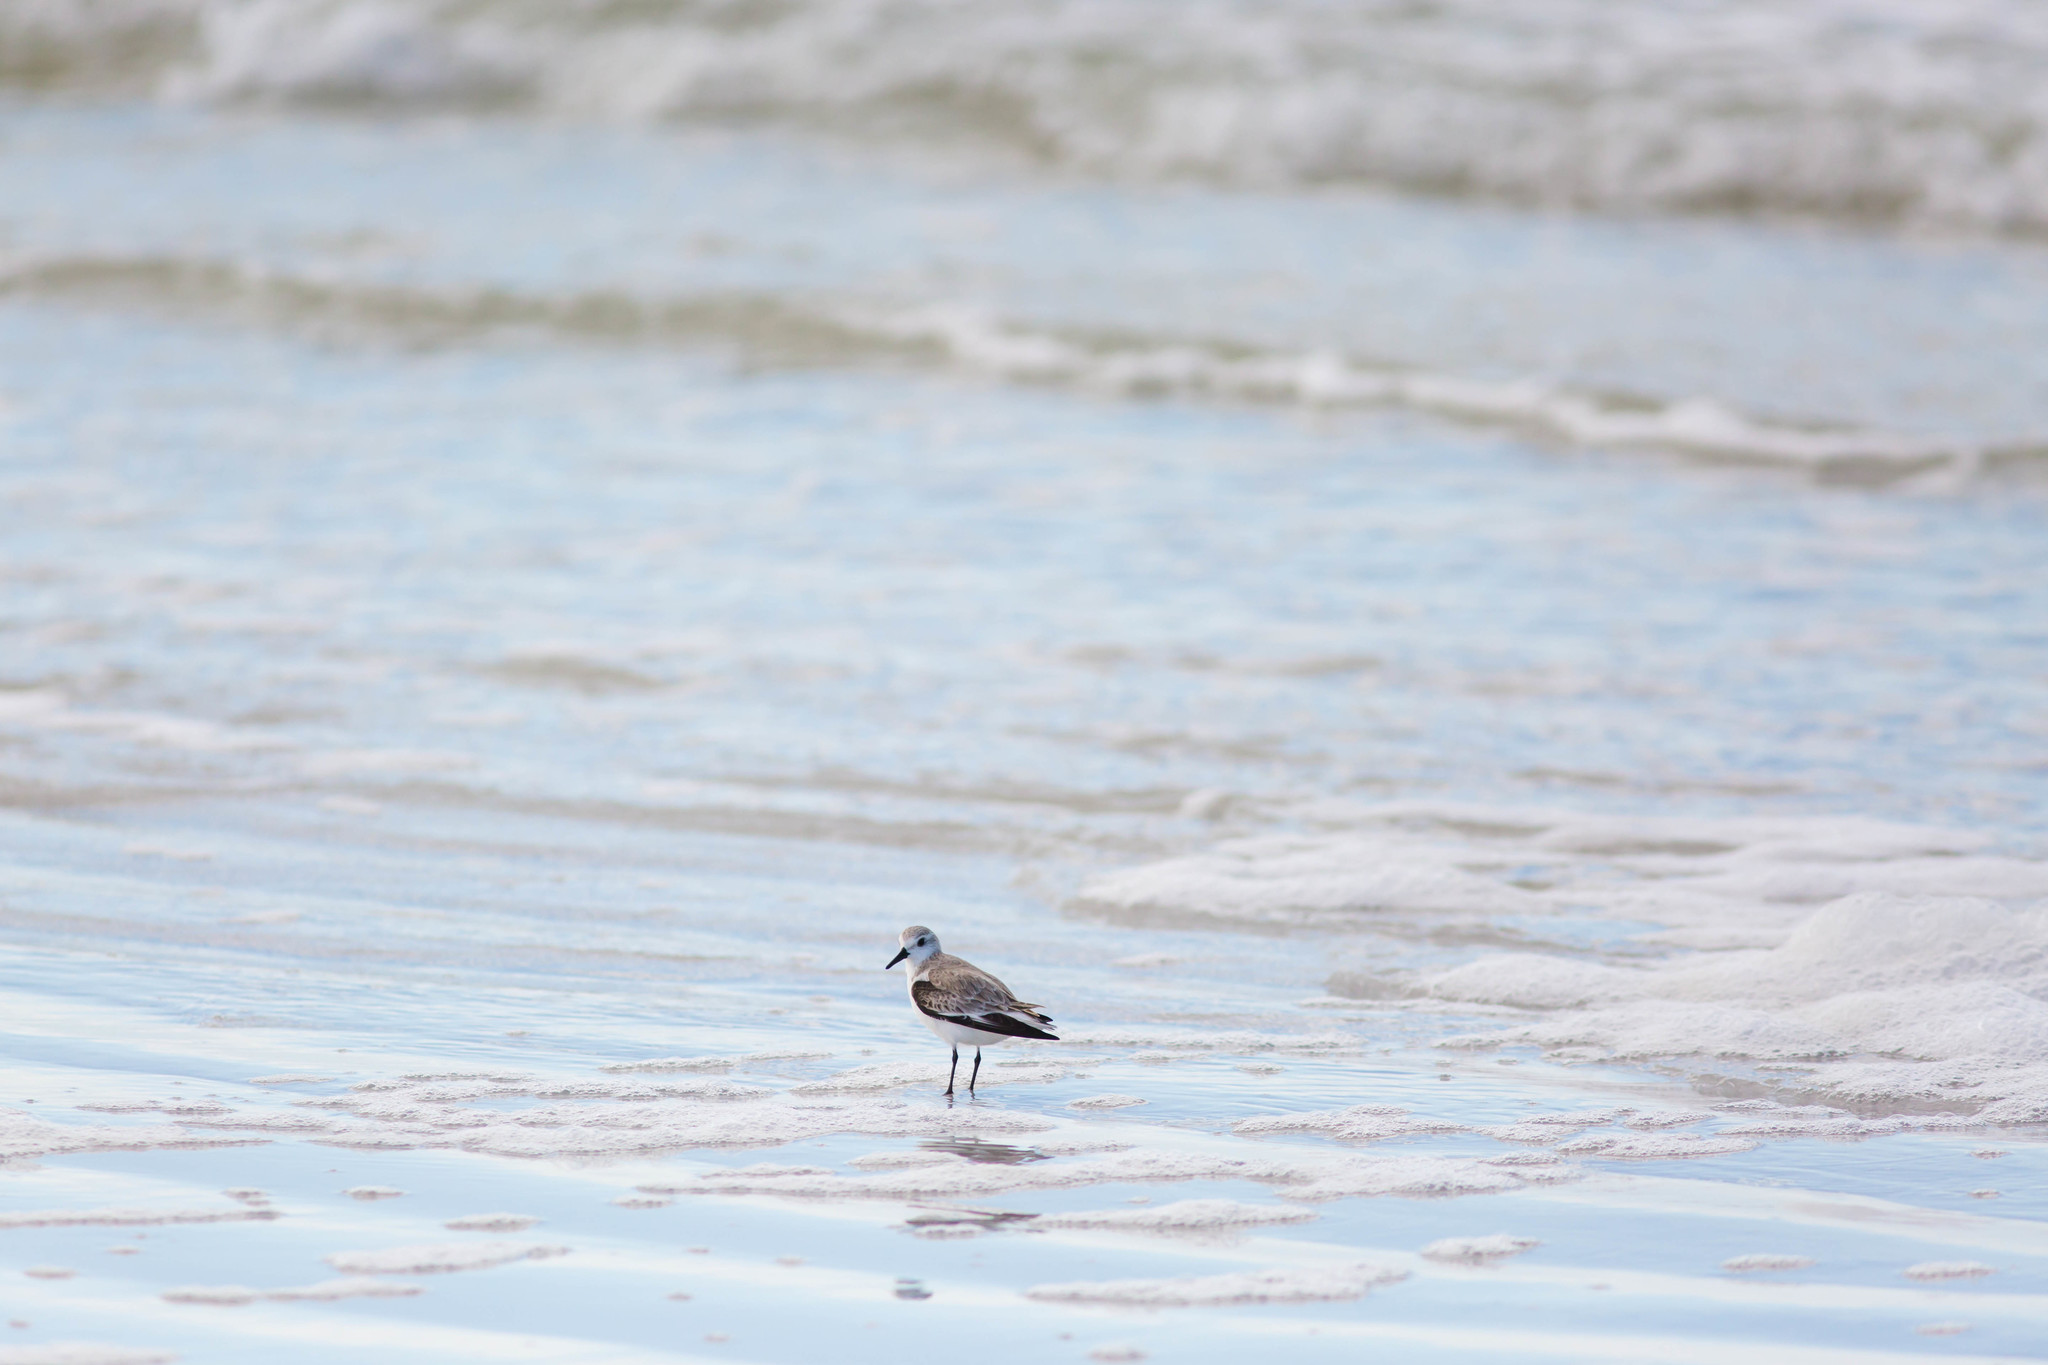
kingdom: Animalia
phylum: Chordata
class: Aves
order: Charadriiformes
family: Scolopacidae
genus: Calidris
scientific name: Calidris alba
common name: Sanderling
